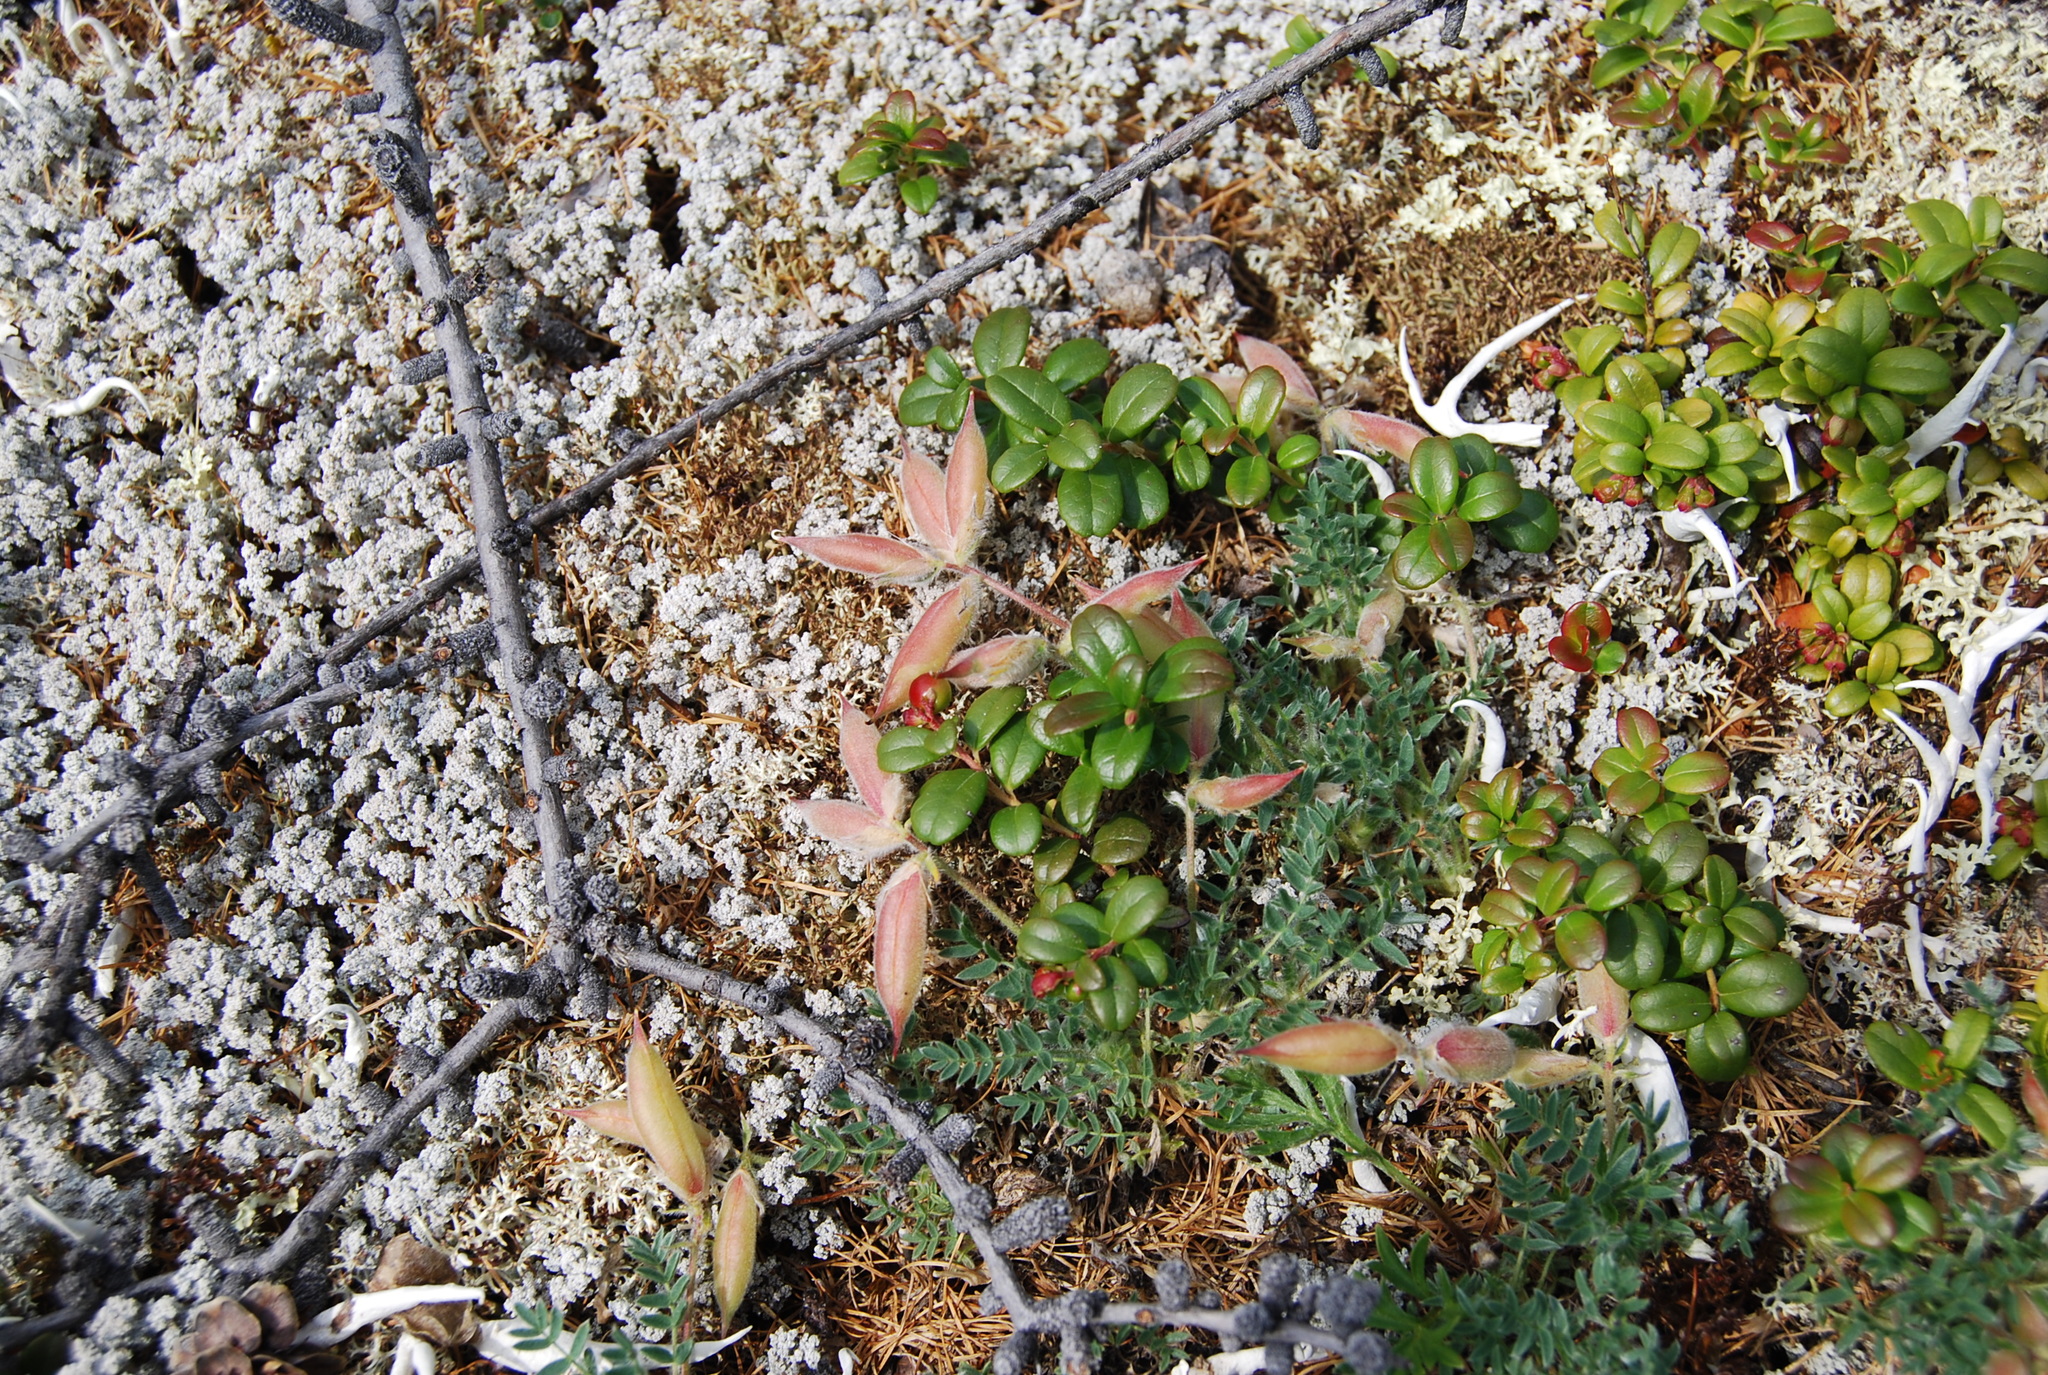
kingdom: Plantae
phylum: Tracheophyta
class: Magnoliopsida
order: Fabales
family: Fabaceae
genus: Oxytropis
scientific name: Oxytropis susumanica
